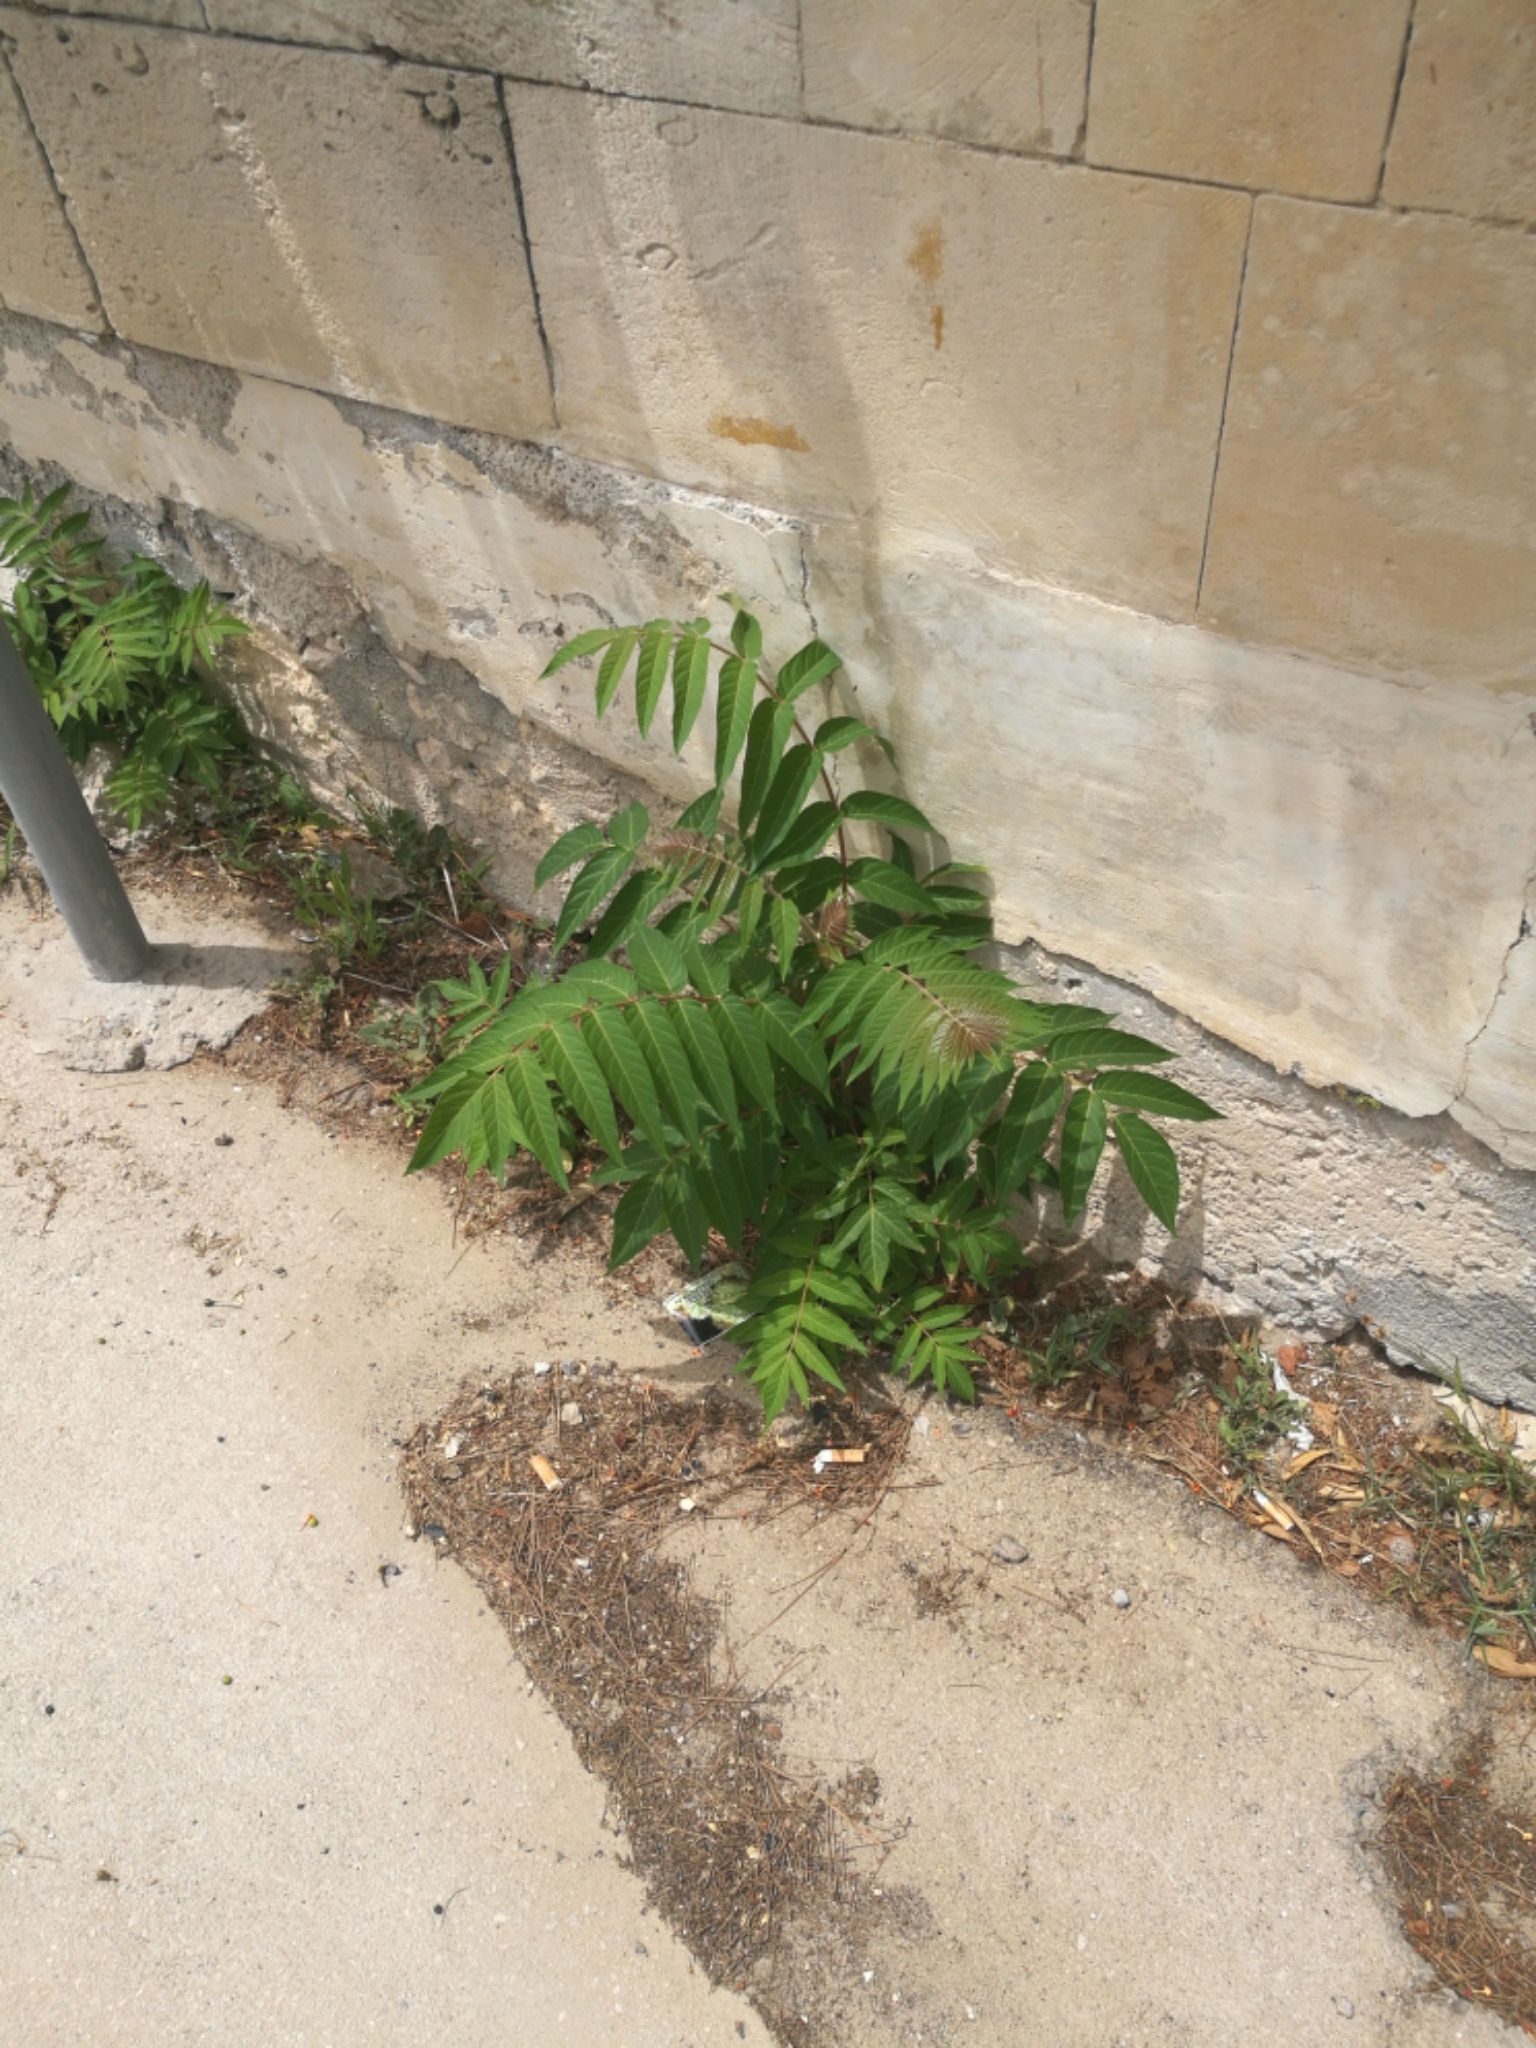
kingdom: Plantae
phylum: Tracheophyta
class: Magnoliopsida
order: Sapindales
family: Simaroubaceae
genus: Ailanthus
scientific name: Ailanthus altissima
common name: Tree-of-heaven
